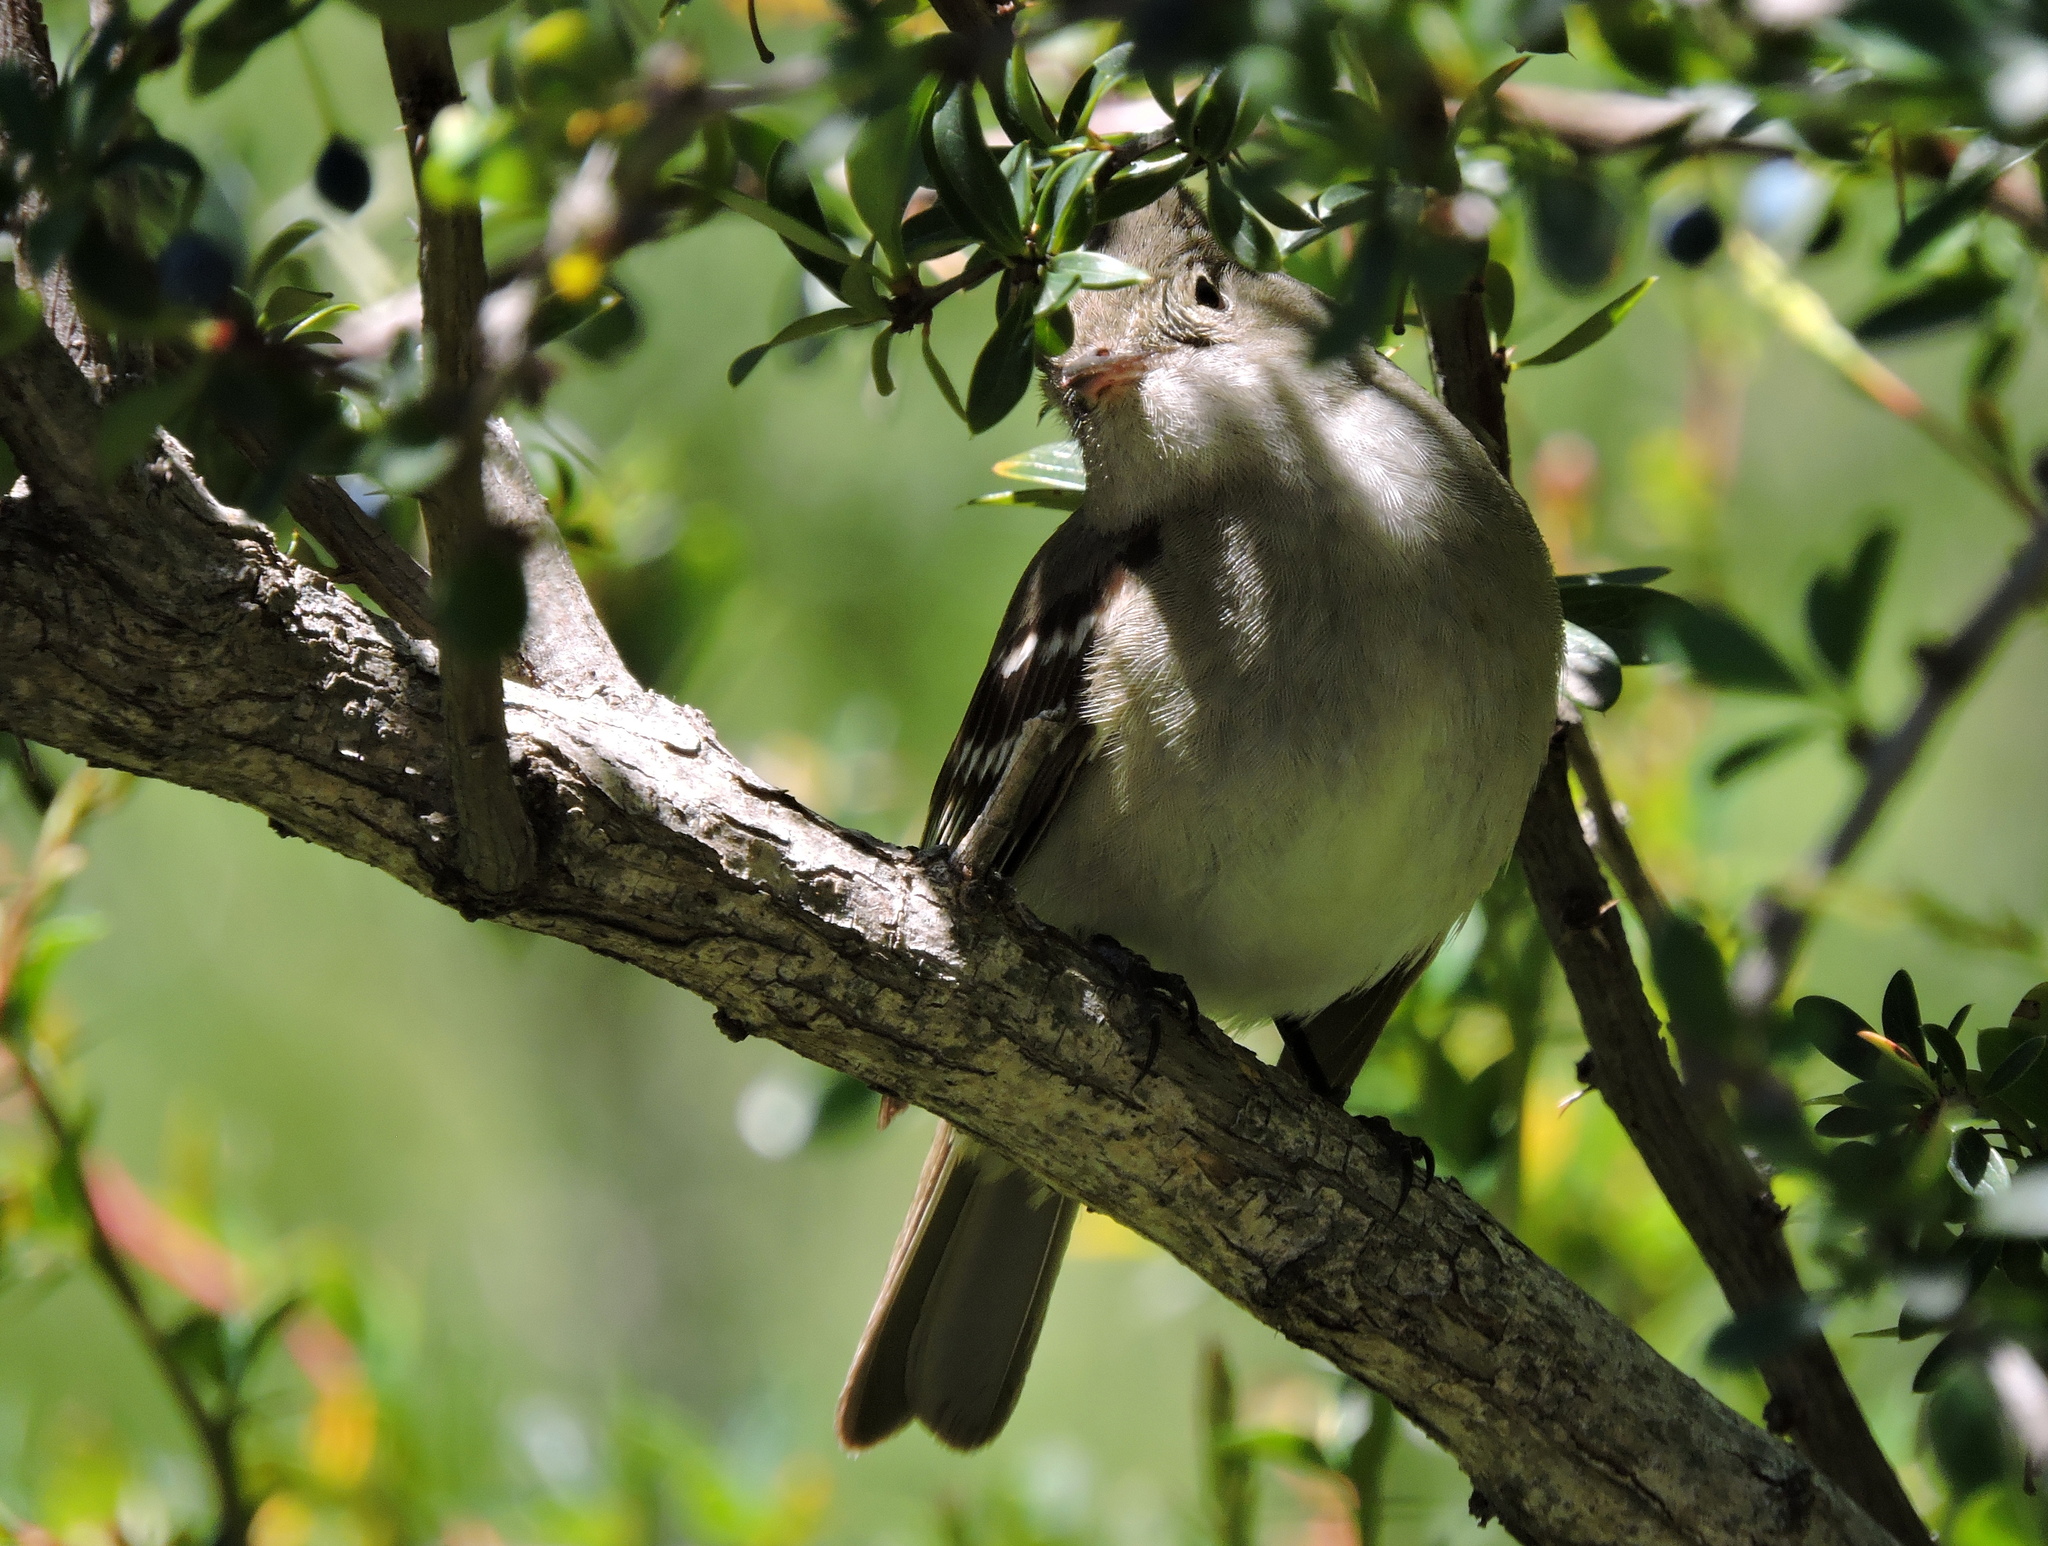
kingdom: Animalia
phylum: Chordata
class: Aves
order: Passeriformes
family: Tyrannidae
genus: Elaenia
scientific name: Elaenia albiceps
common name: White-crested elaenia
